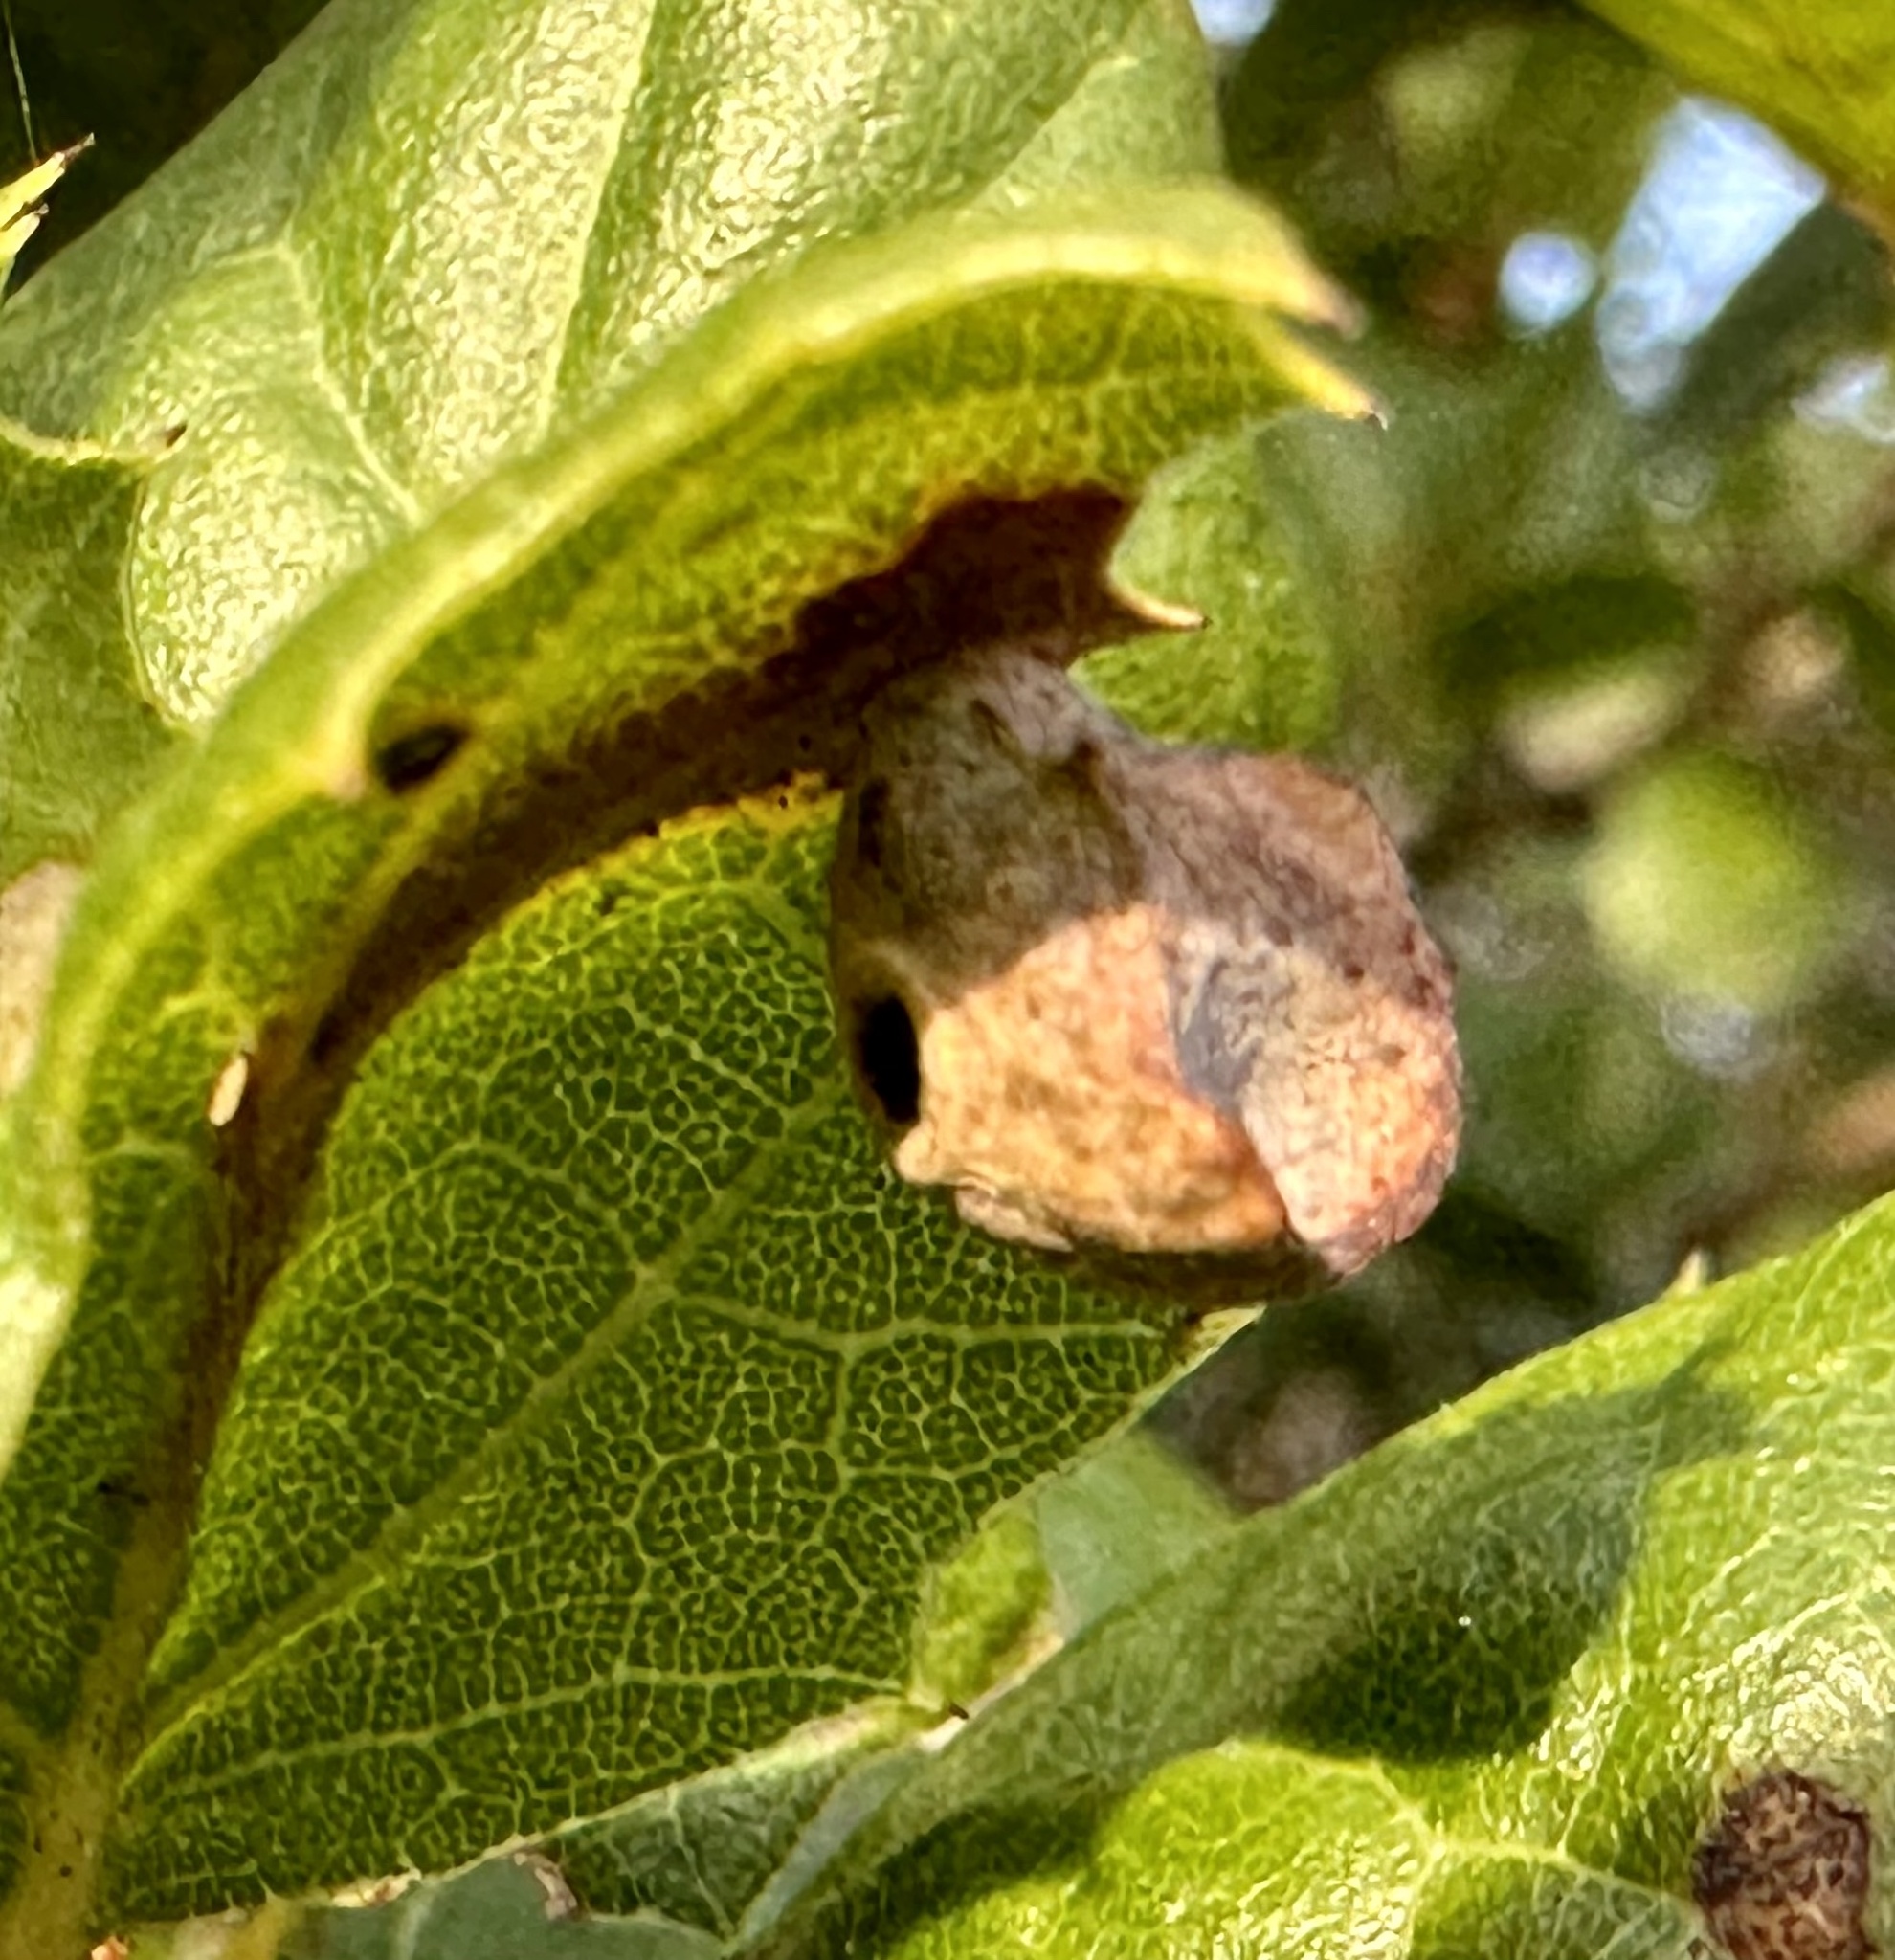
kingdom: Animalia
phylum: Arthropoda
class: Insecta
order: Hymenoptera
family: Cynipidae
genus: Amphibolips
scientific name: Amphibolips quercuspomiformis
